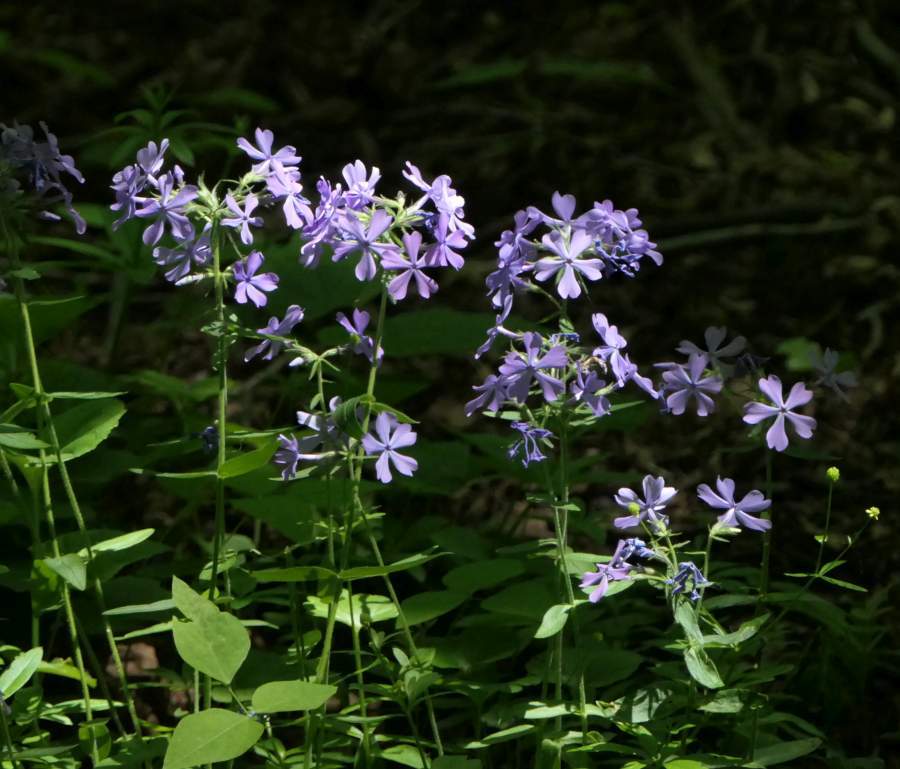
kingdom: Plantae
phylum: Tracheophyta
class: Magnoliopsida
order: Ericales
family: Polemoniaceae
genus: Phlox
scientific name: Phlox divaricata
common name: Blue phlox
